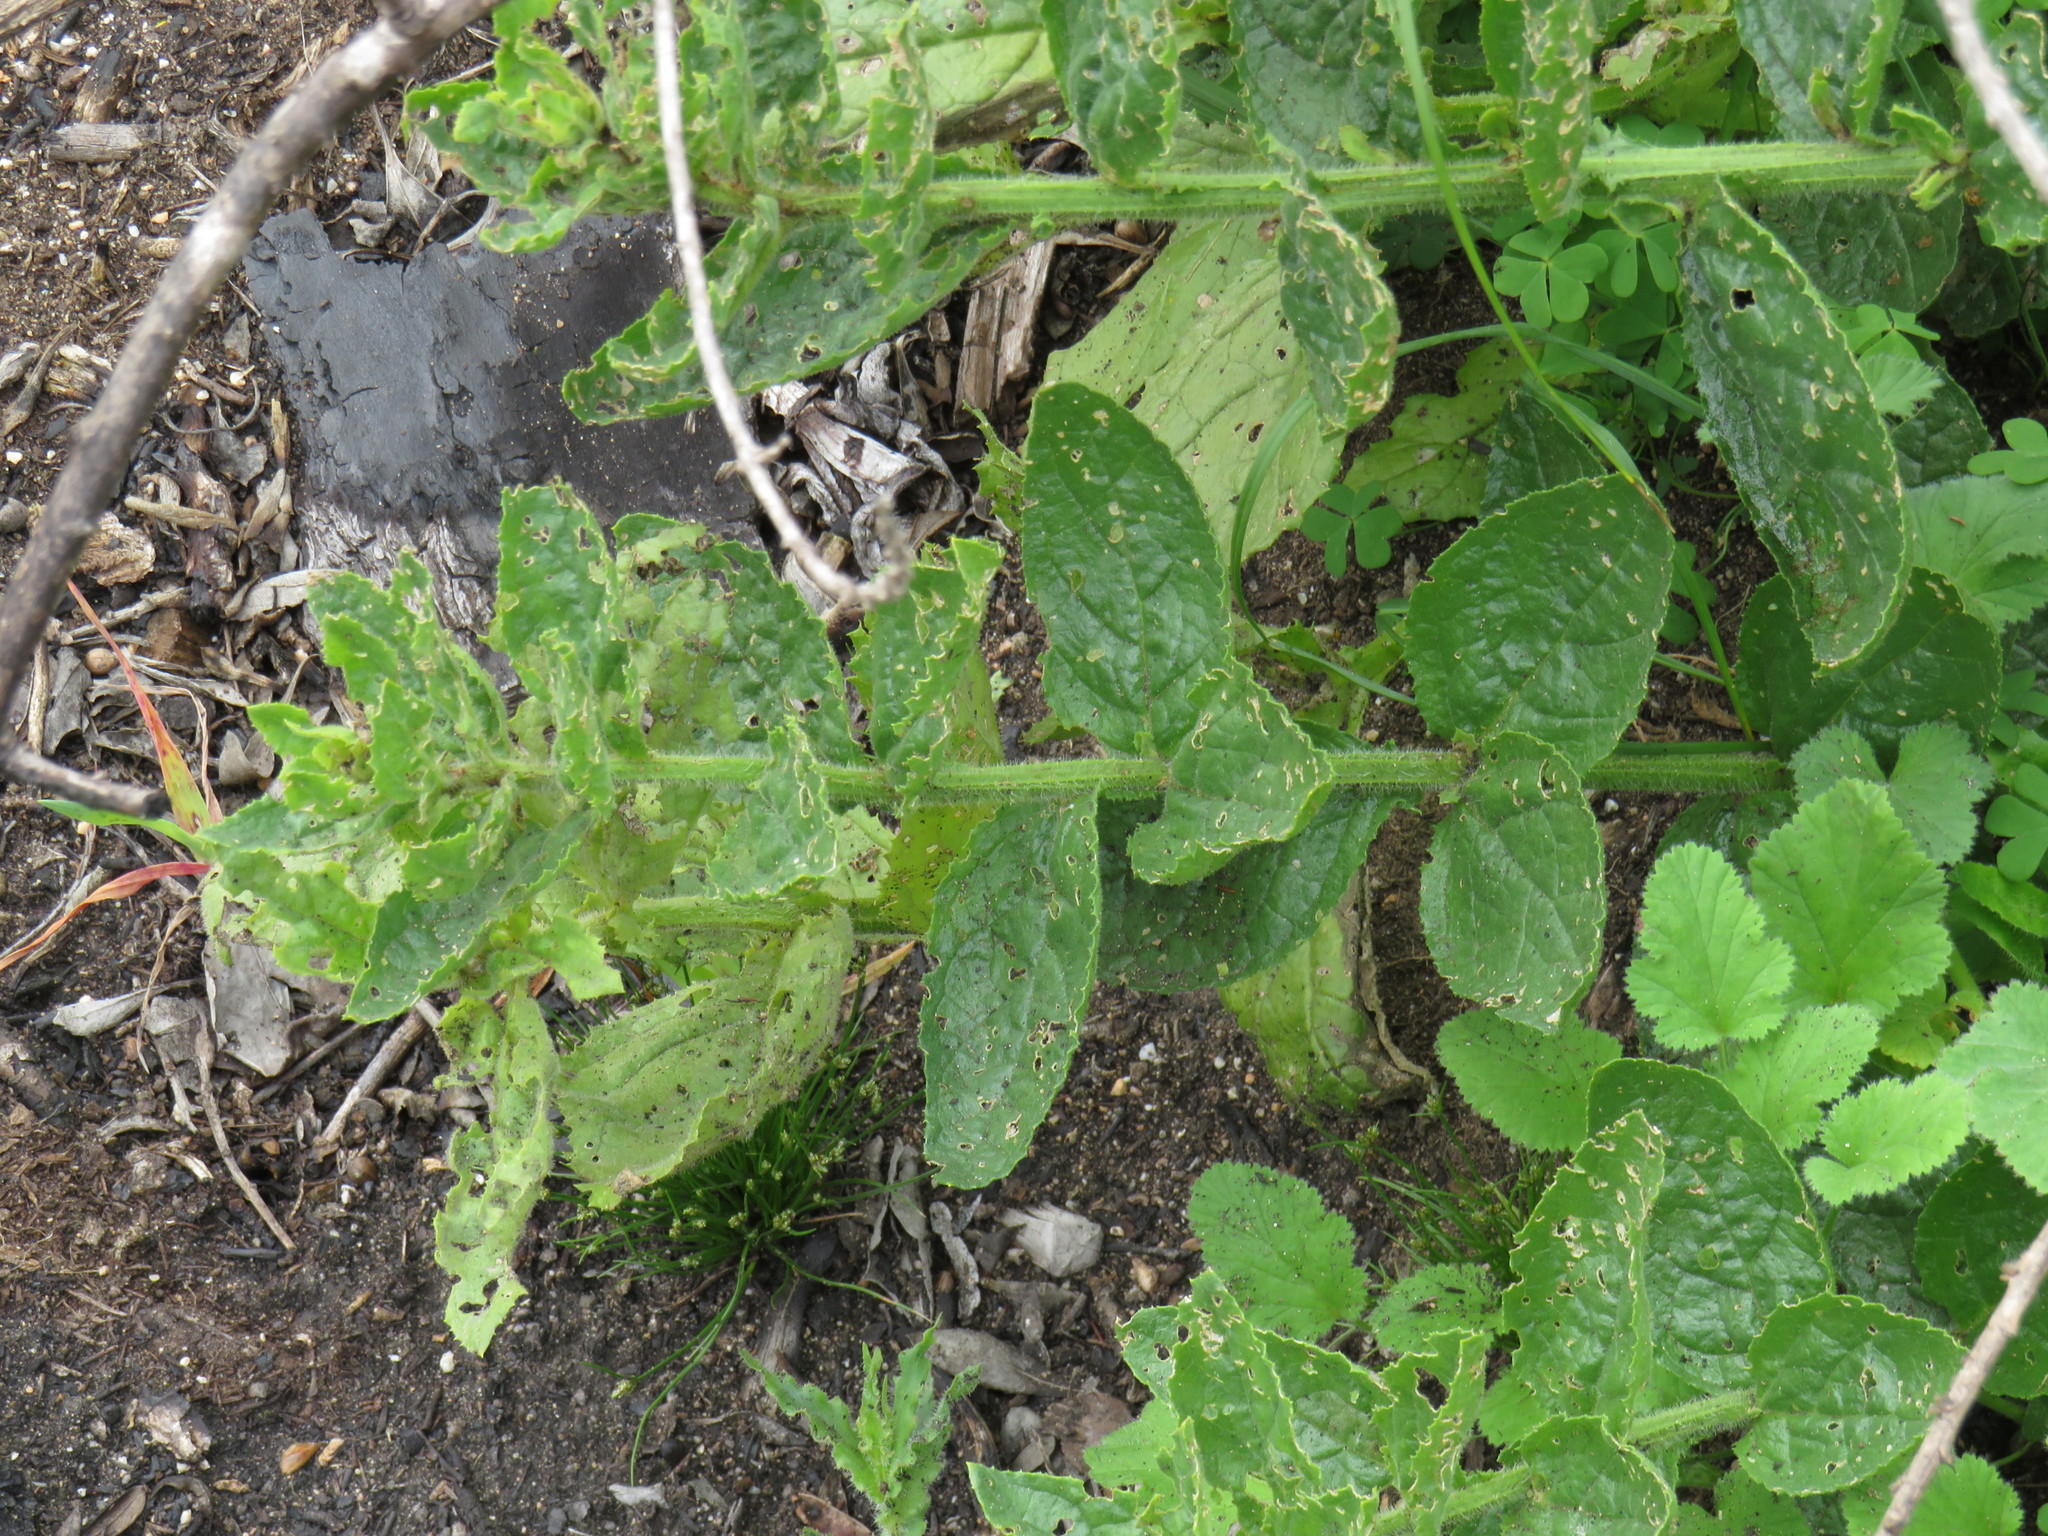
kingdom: Plantae
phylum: Tracheophyta
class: Magnoliopsida
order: Lamiales
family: Scrophulariaceae
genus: Oftia
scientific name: Oftia africana
